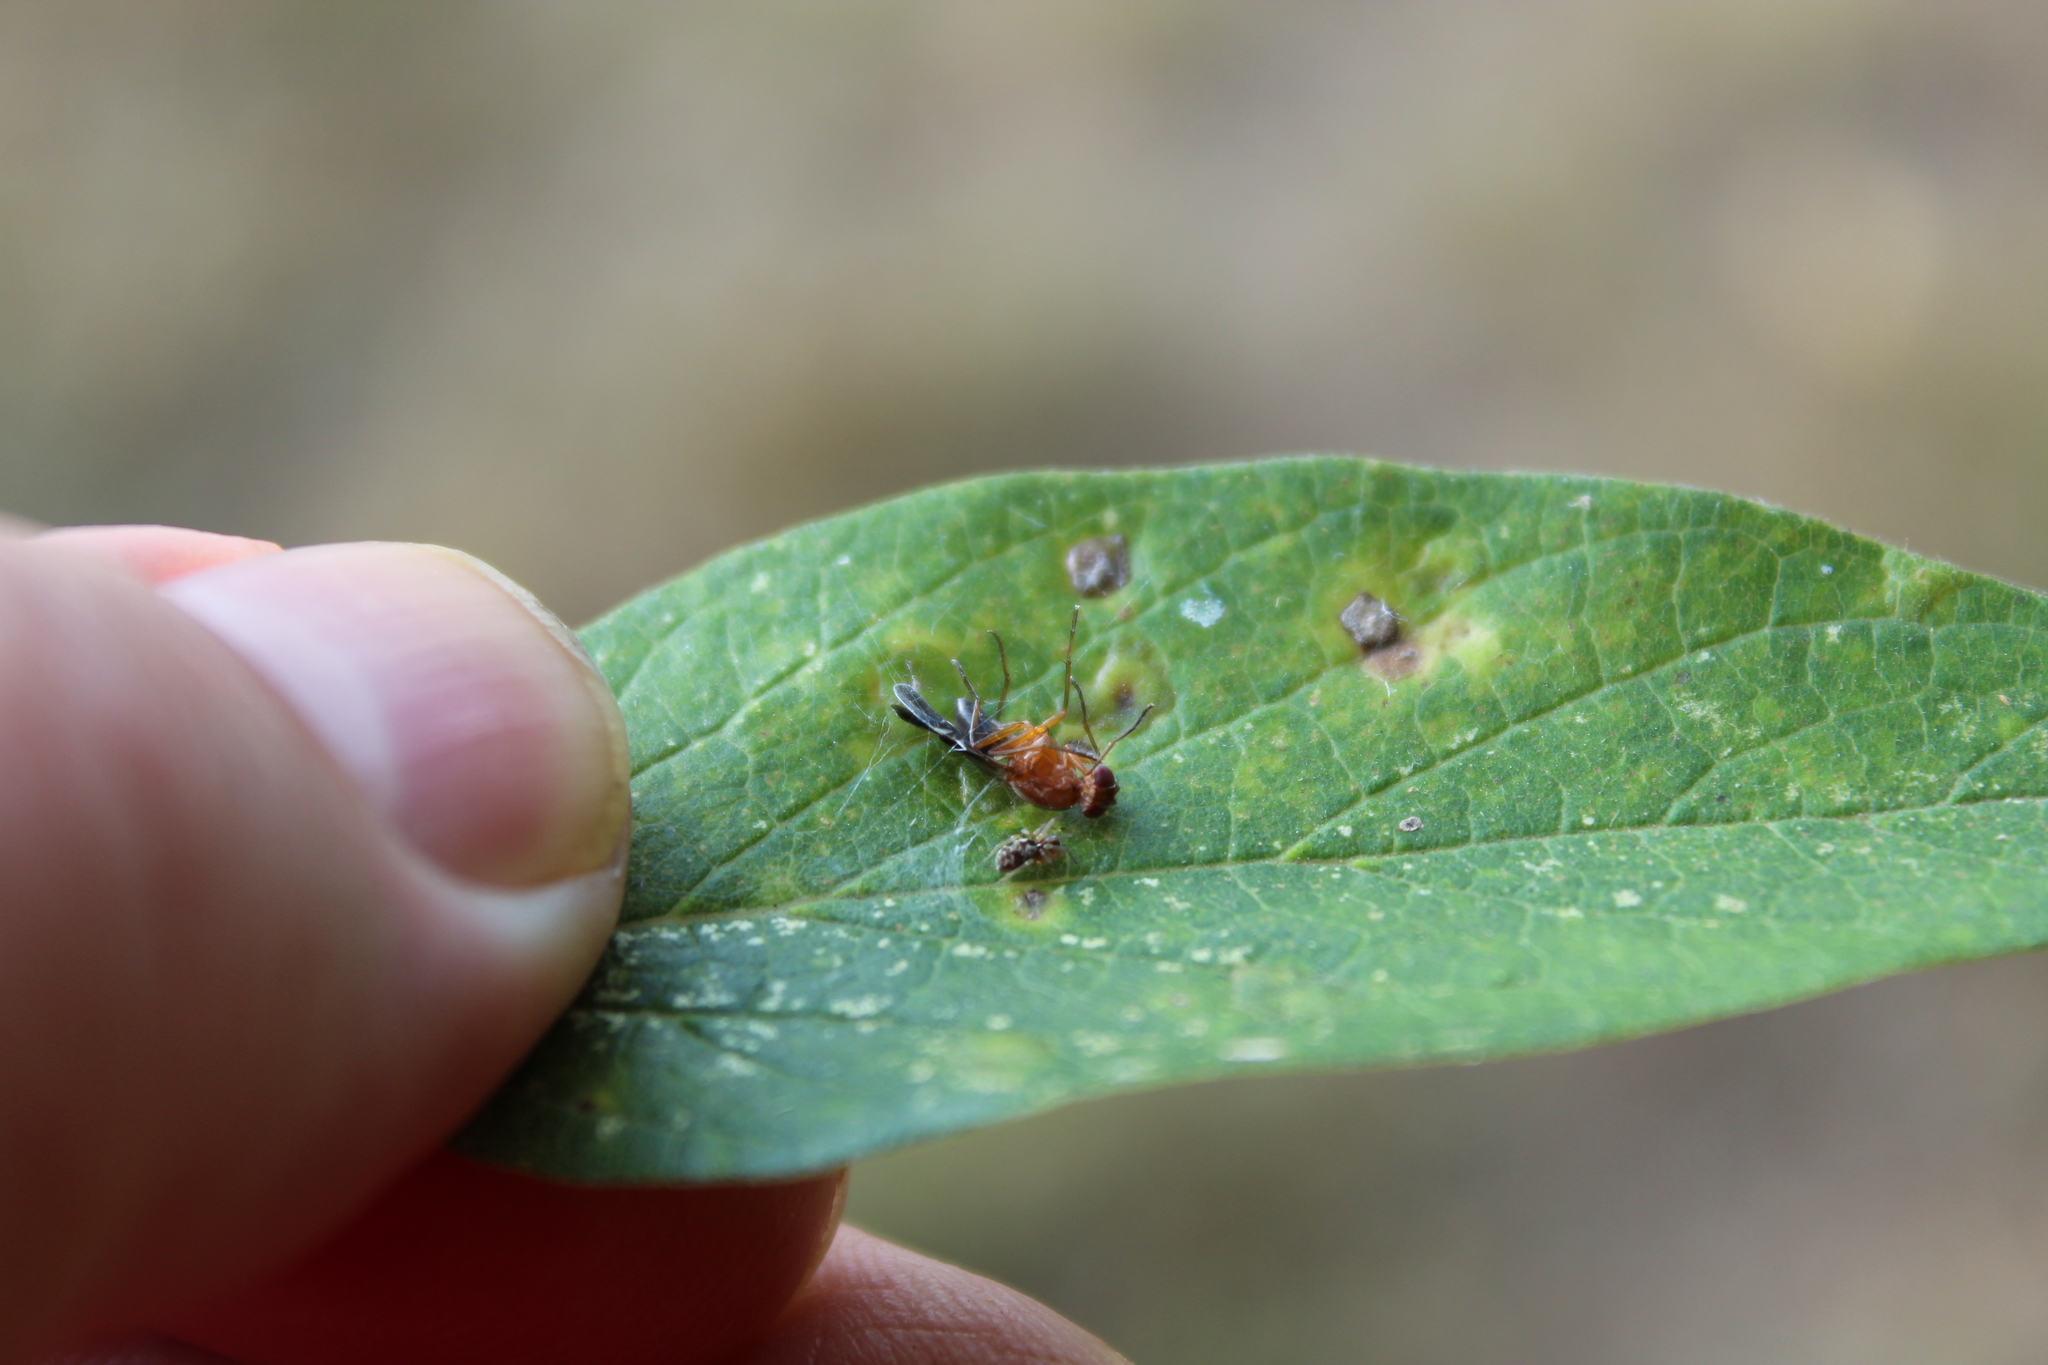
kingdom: Animalia
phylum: Arthropoda
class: Insecta
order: Diptera
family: Ulidiidae
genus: Delphinia
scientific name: Delphinia picta
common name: Common picture-winged fly
